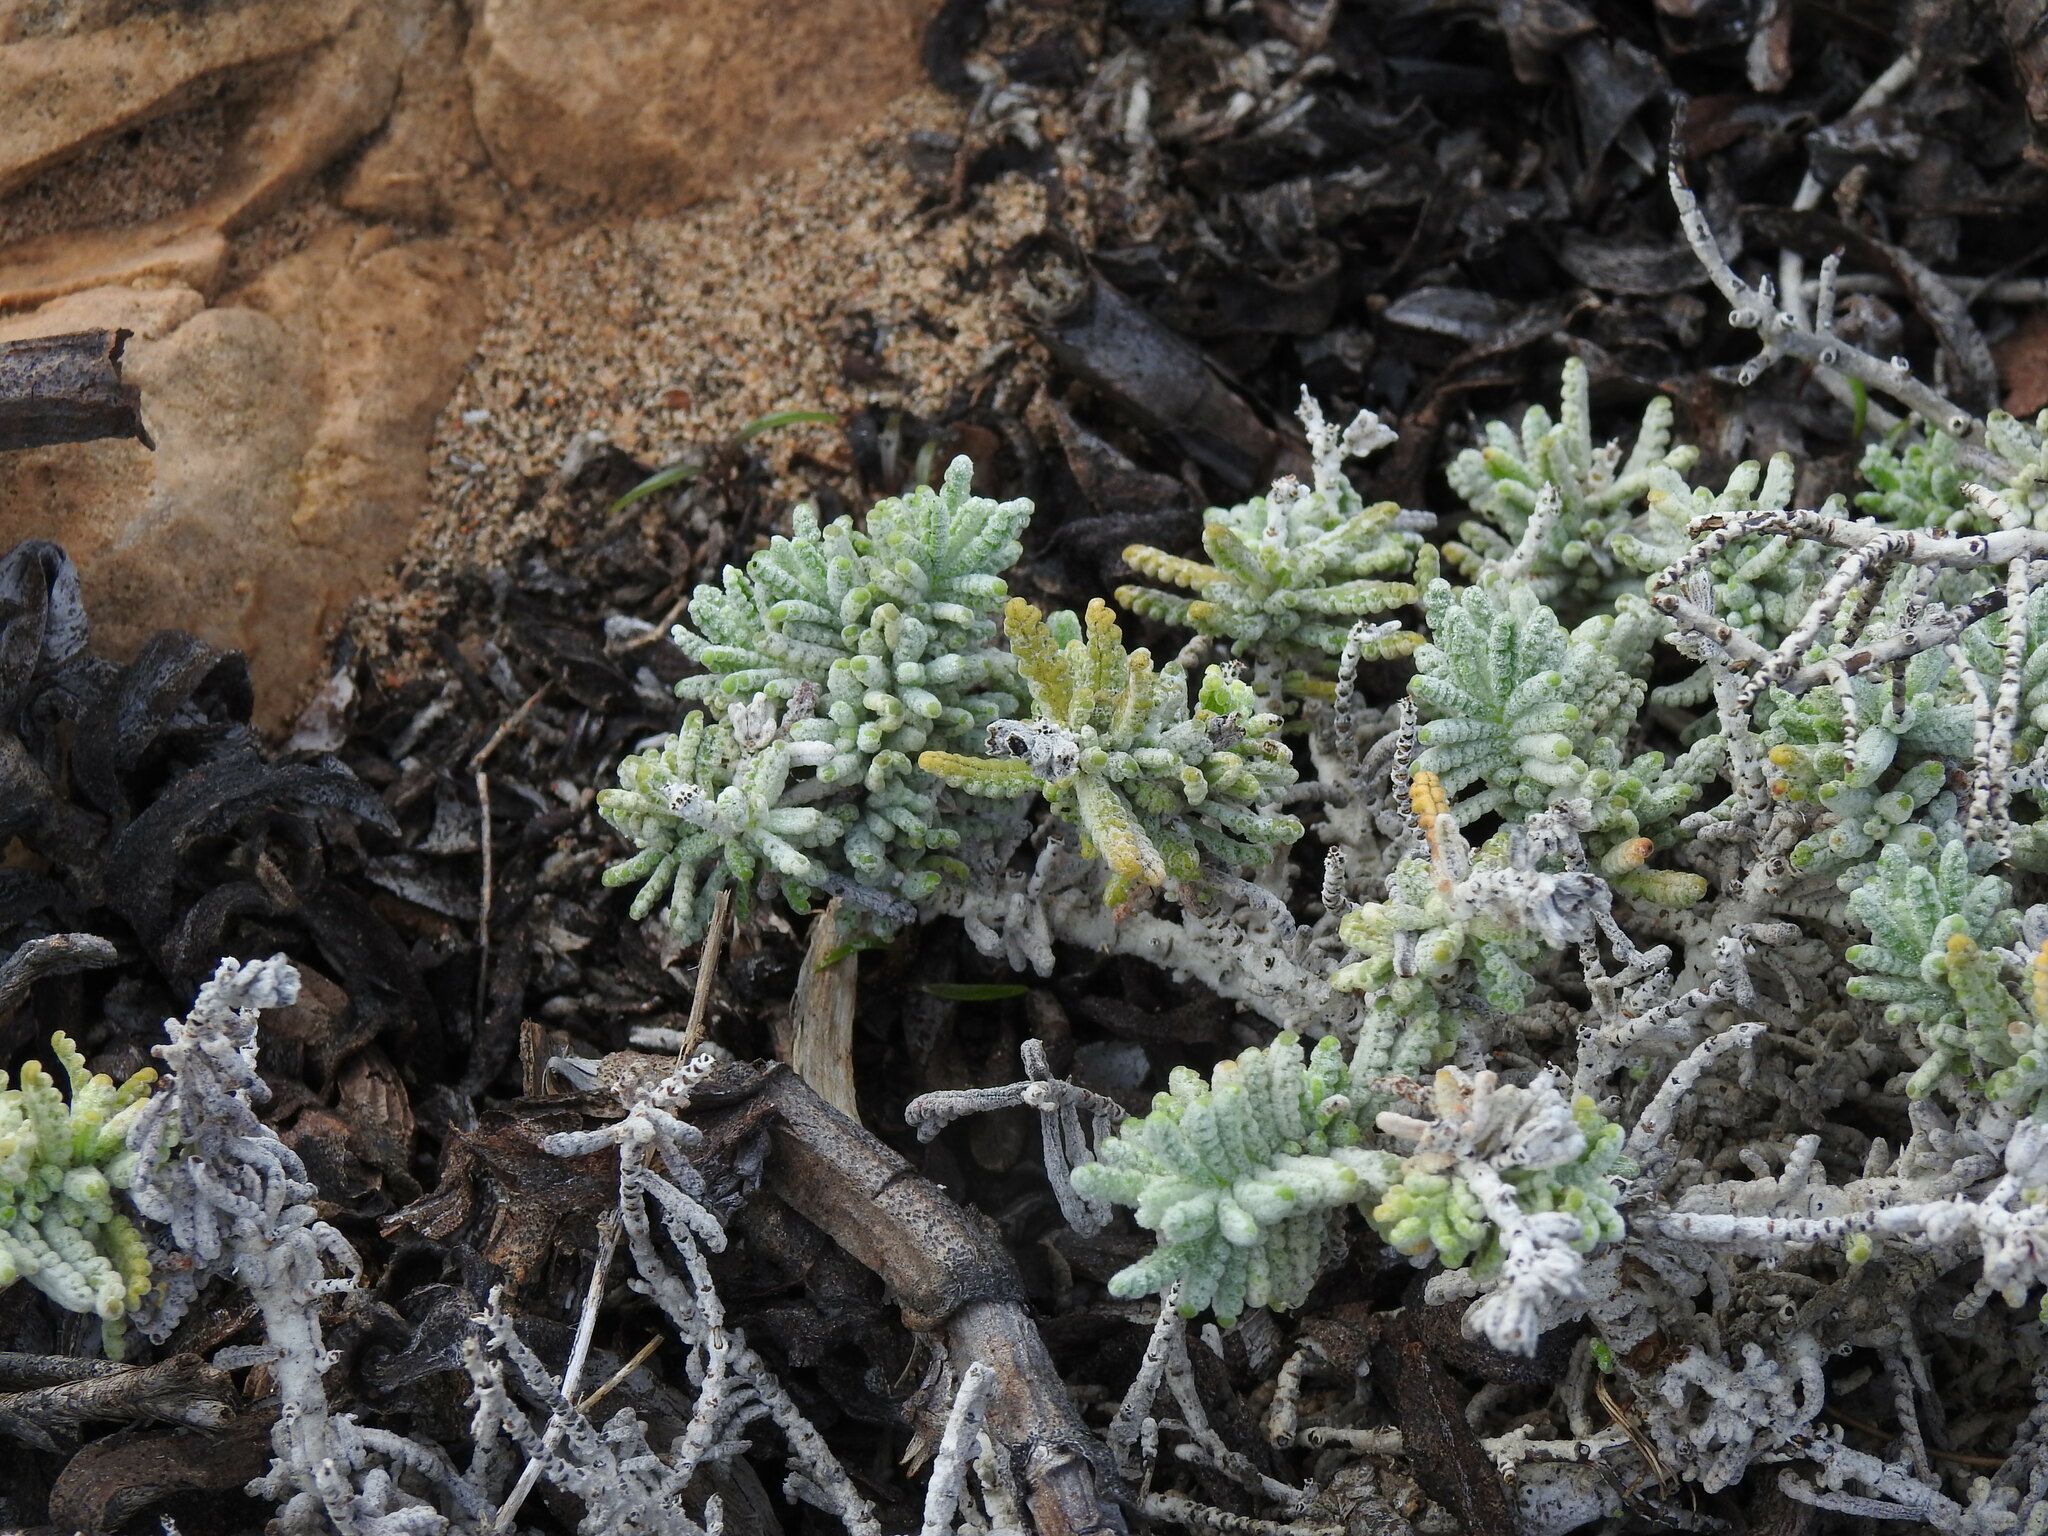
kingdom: Plantae
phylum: Tracheophyta
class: Magnoliopsida
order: Lamiales
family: Lamiaceae
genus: Teucrium
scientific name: Teucrium vincentinum
